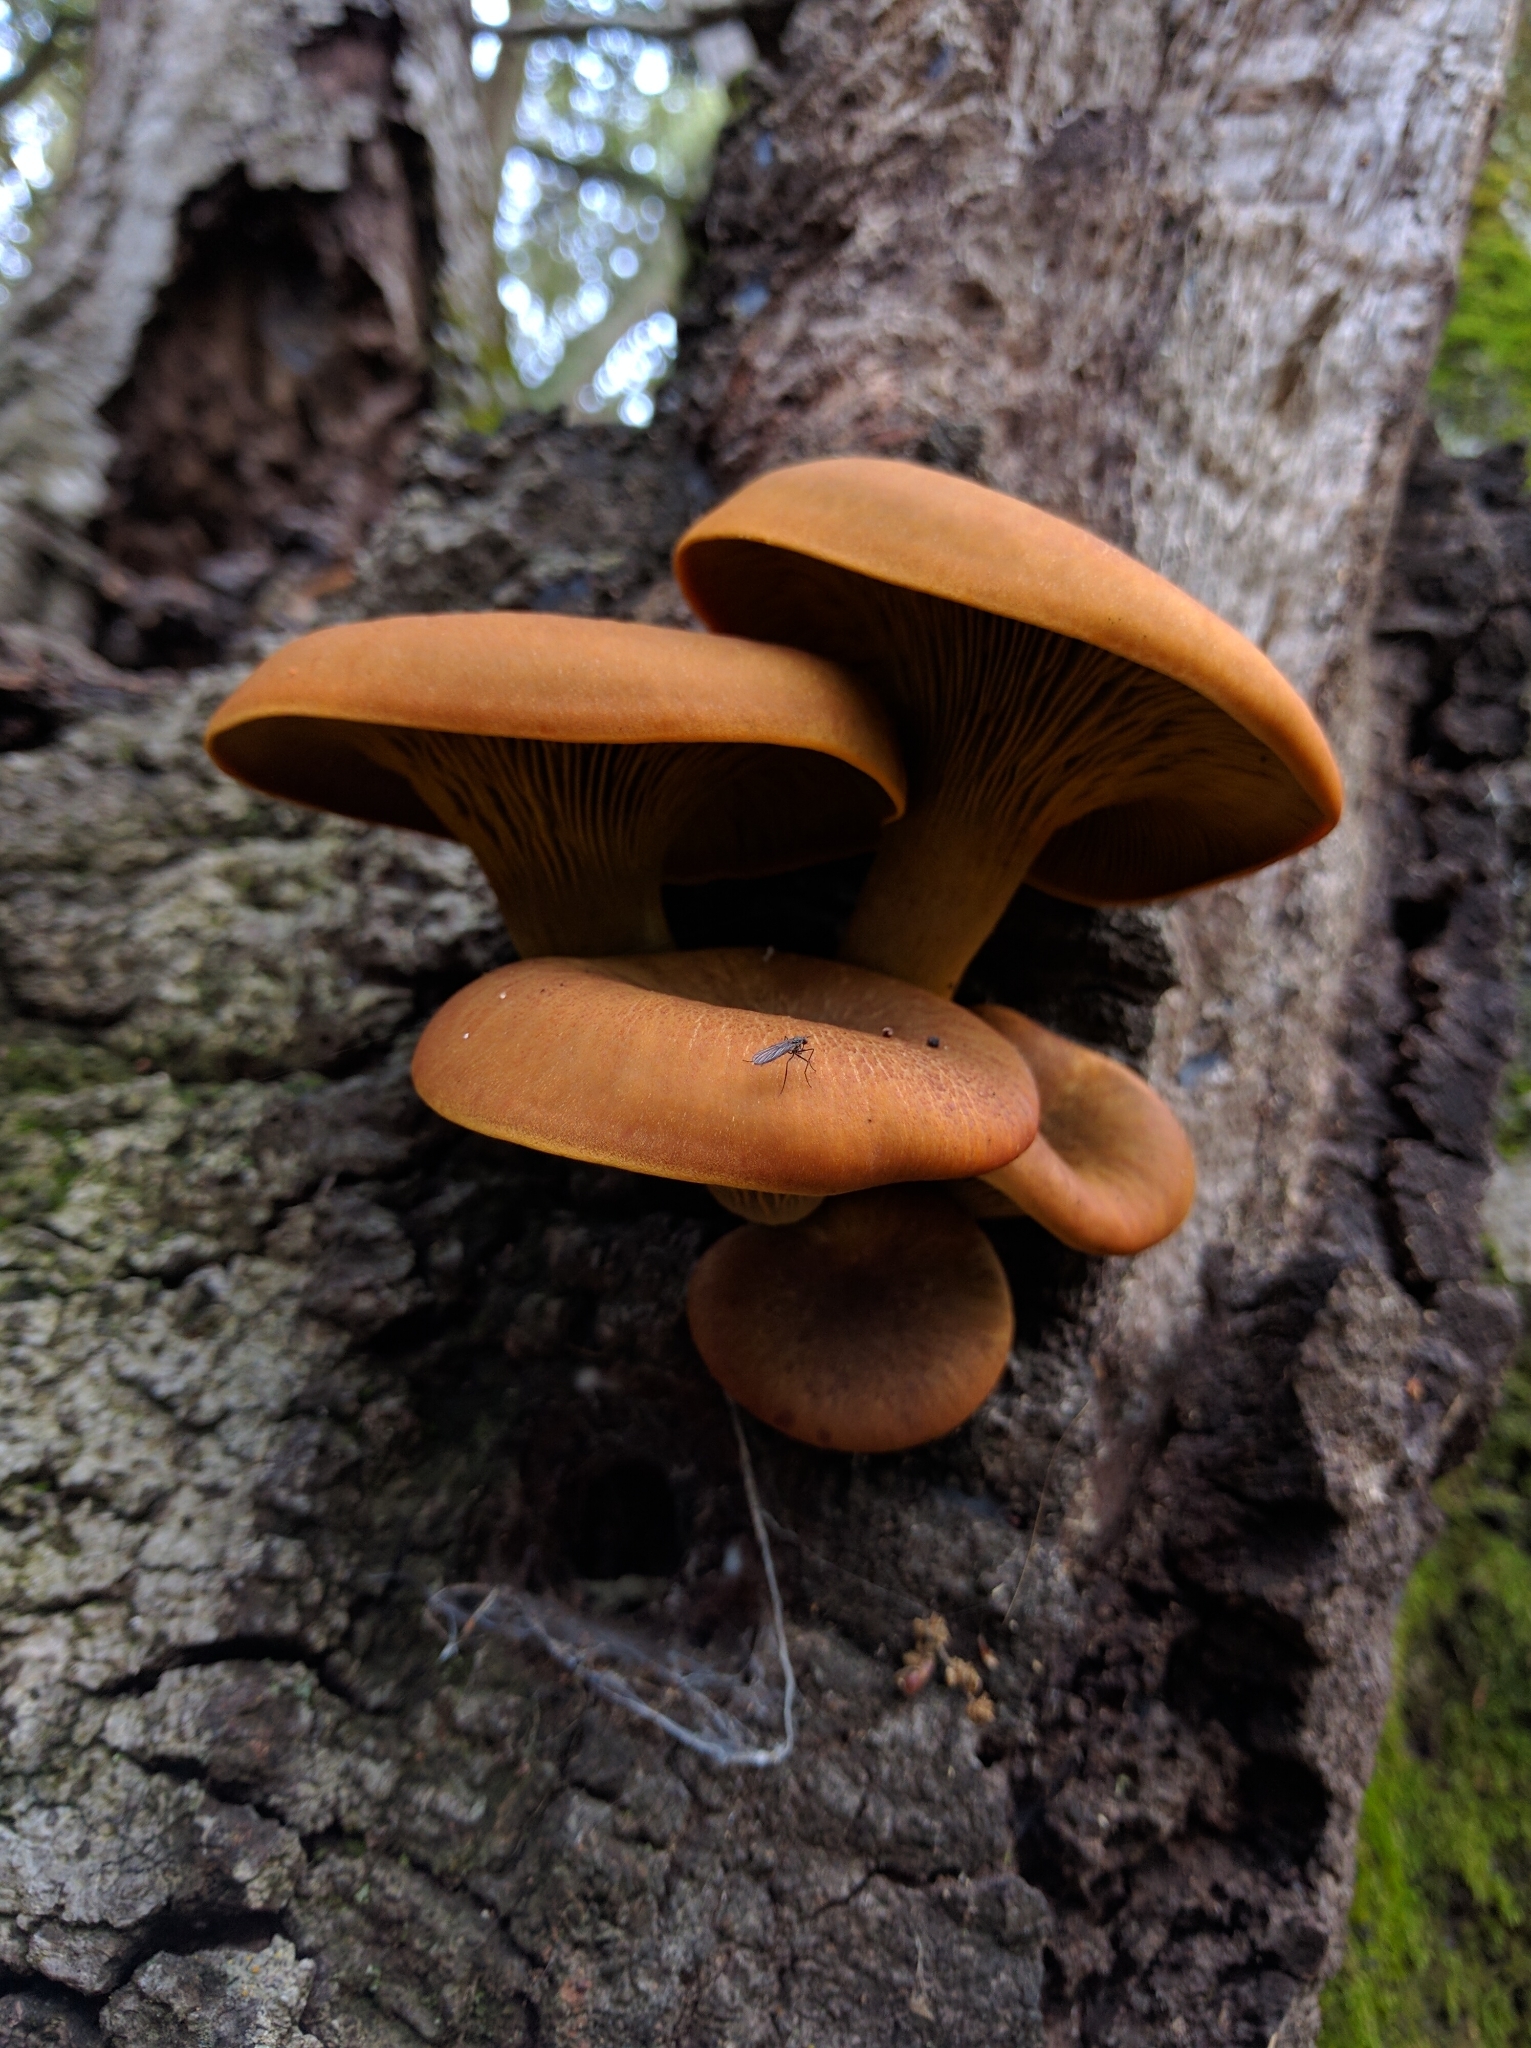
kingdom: Fungi
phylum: Basidiomycota
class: Agaricomycetes
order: Agaricales
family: Omphalotaceae
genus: Omphalotus
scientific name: Omphalotus olivascens
